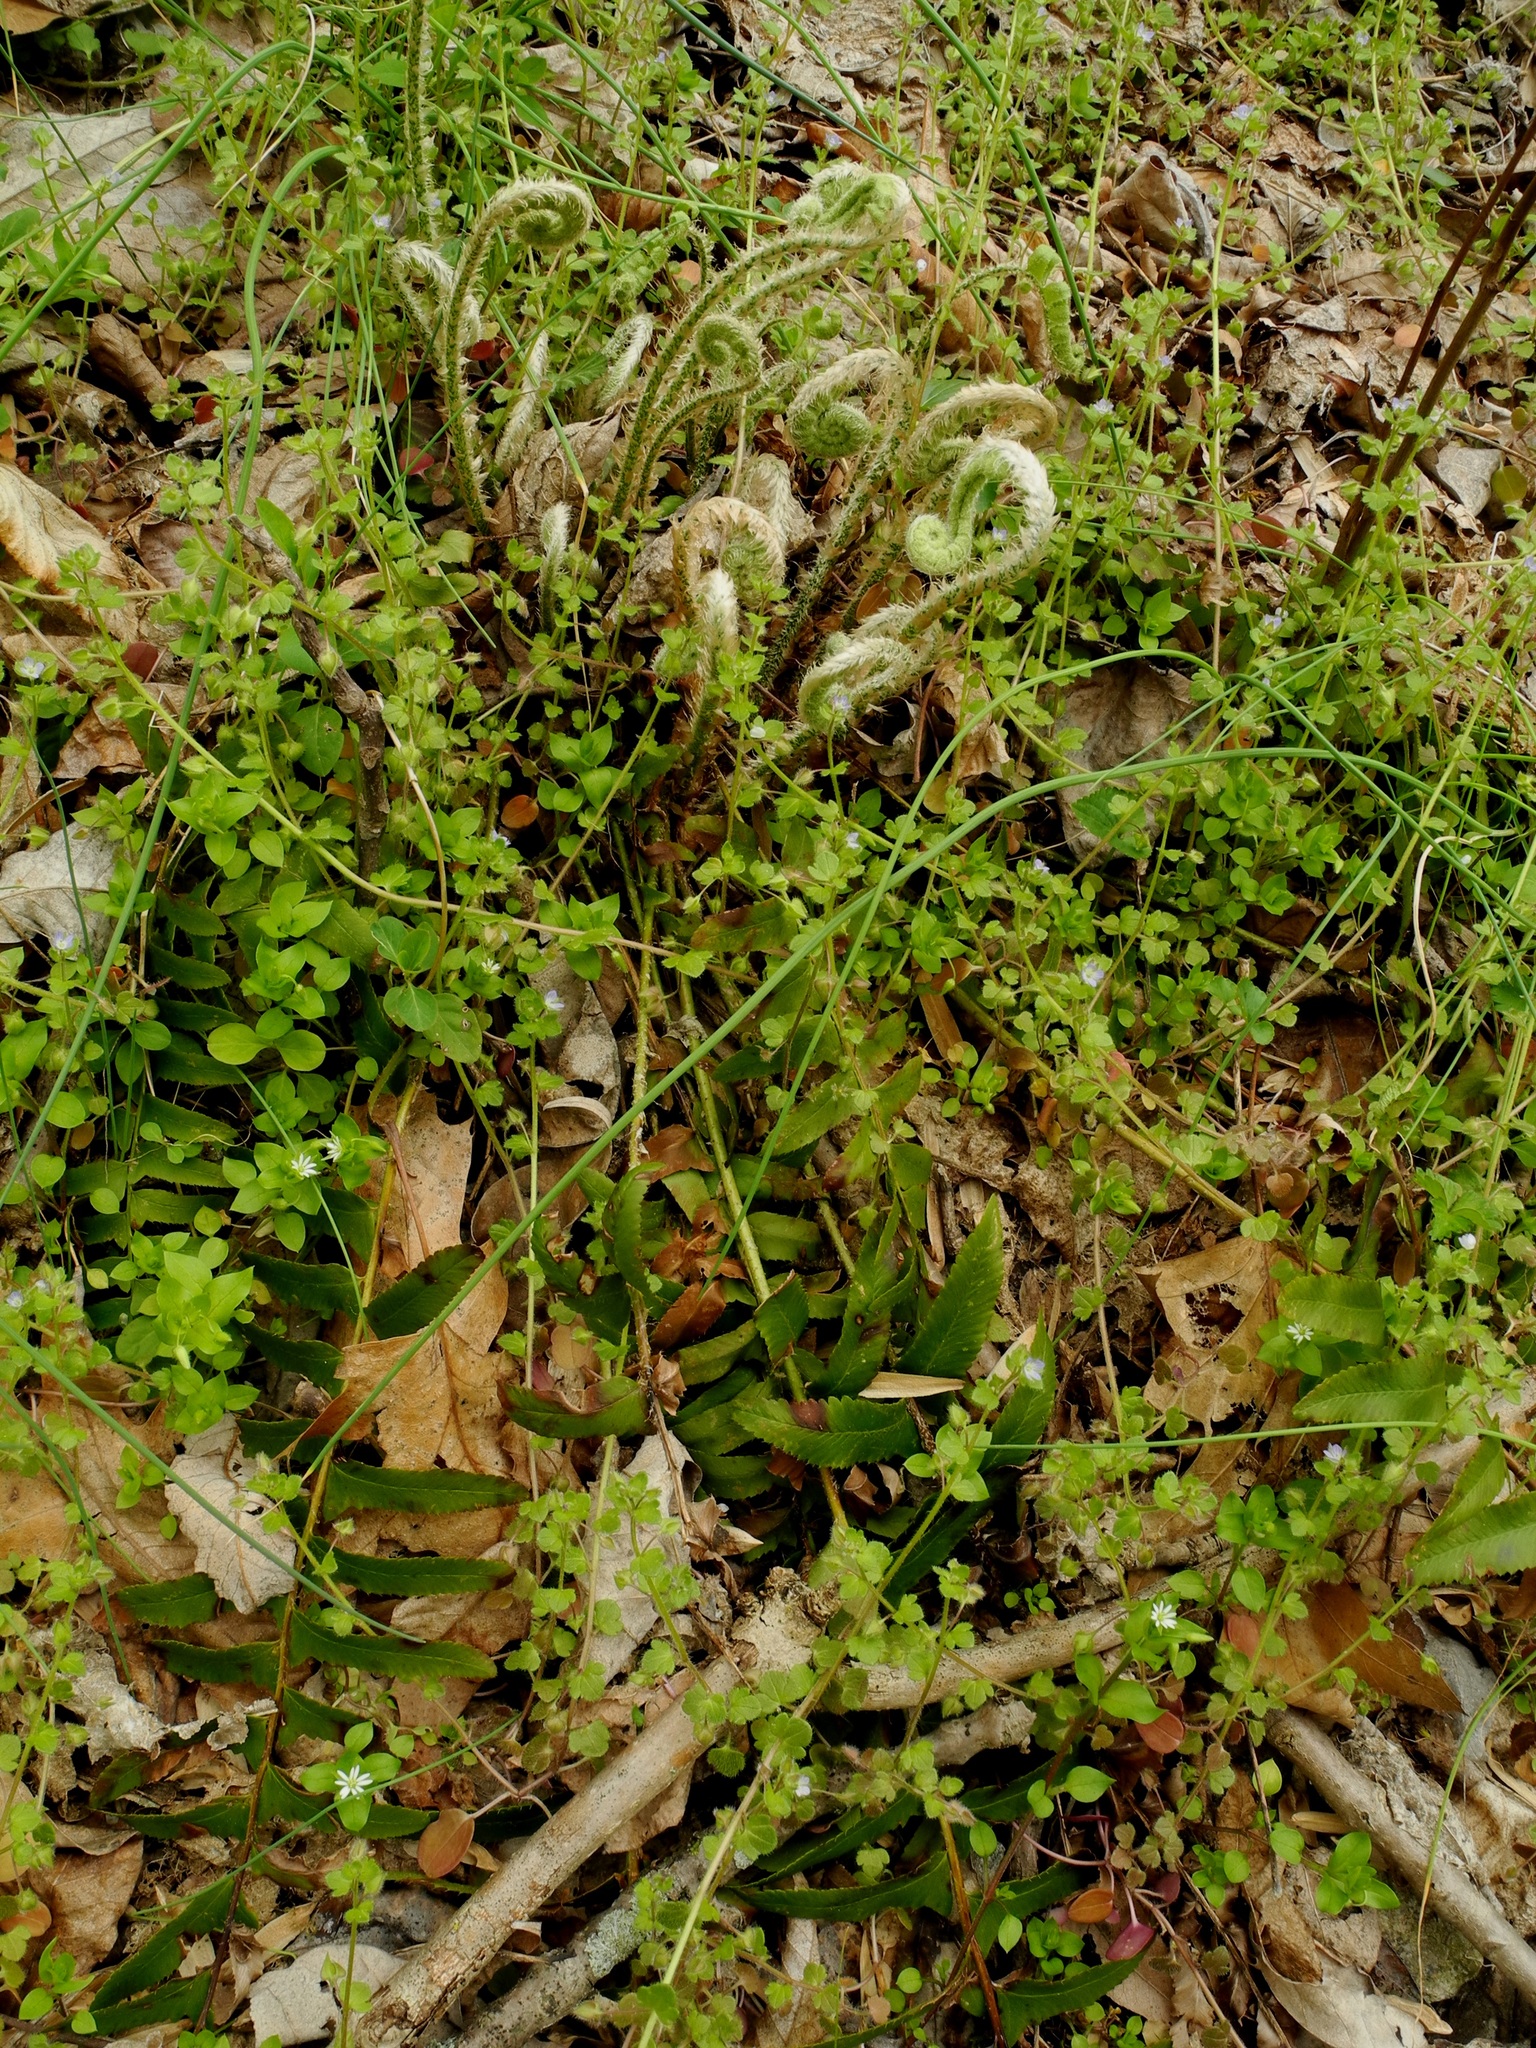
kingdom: Plantae
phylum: Tracheophyta
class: Polypodiopsida
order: Polypodiales
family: Dryopteridaceae
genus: Polystichum
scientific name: Polystichum acrostichoides
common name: Christmas fern
